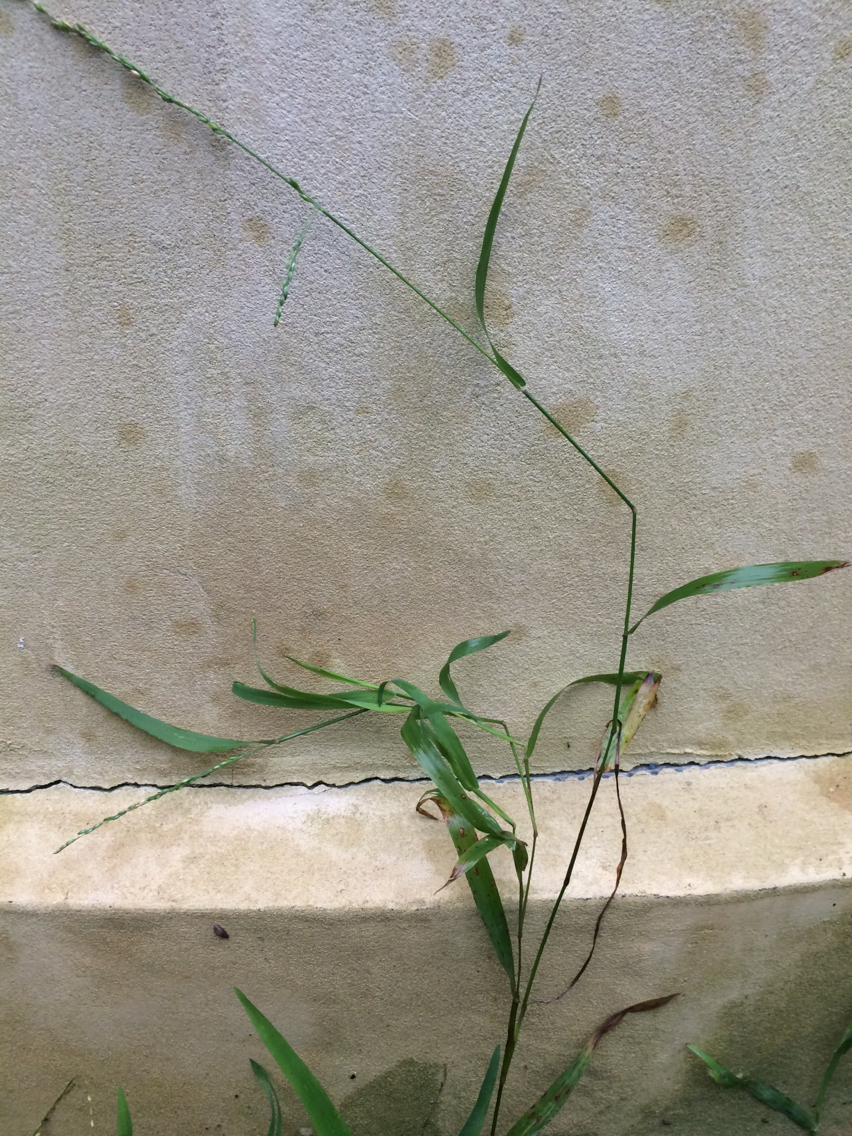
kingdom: Plantae
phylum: Tracheophyta
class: Liliopsida
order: Poales
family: Poaceae
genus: Ehrharta
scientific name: Ehrharta erecta
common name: Panic veldtgrass
